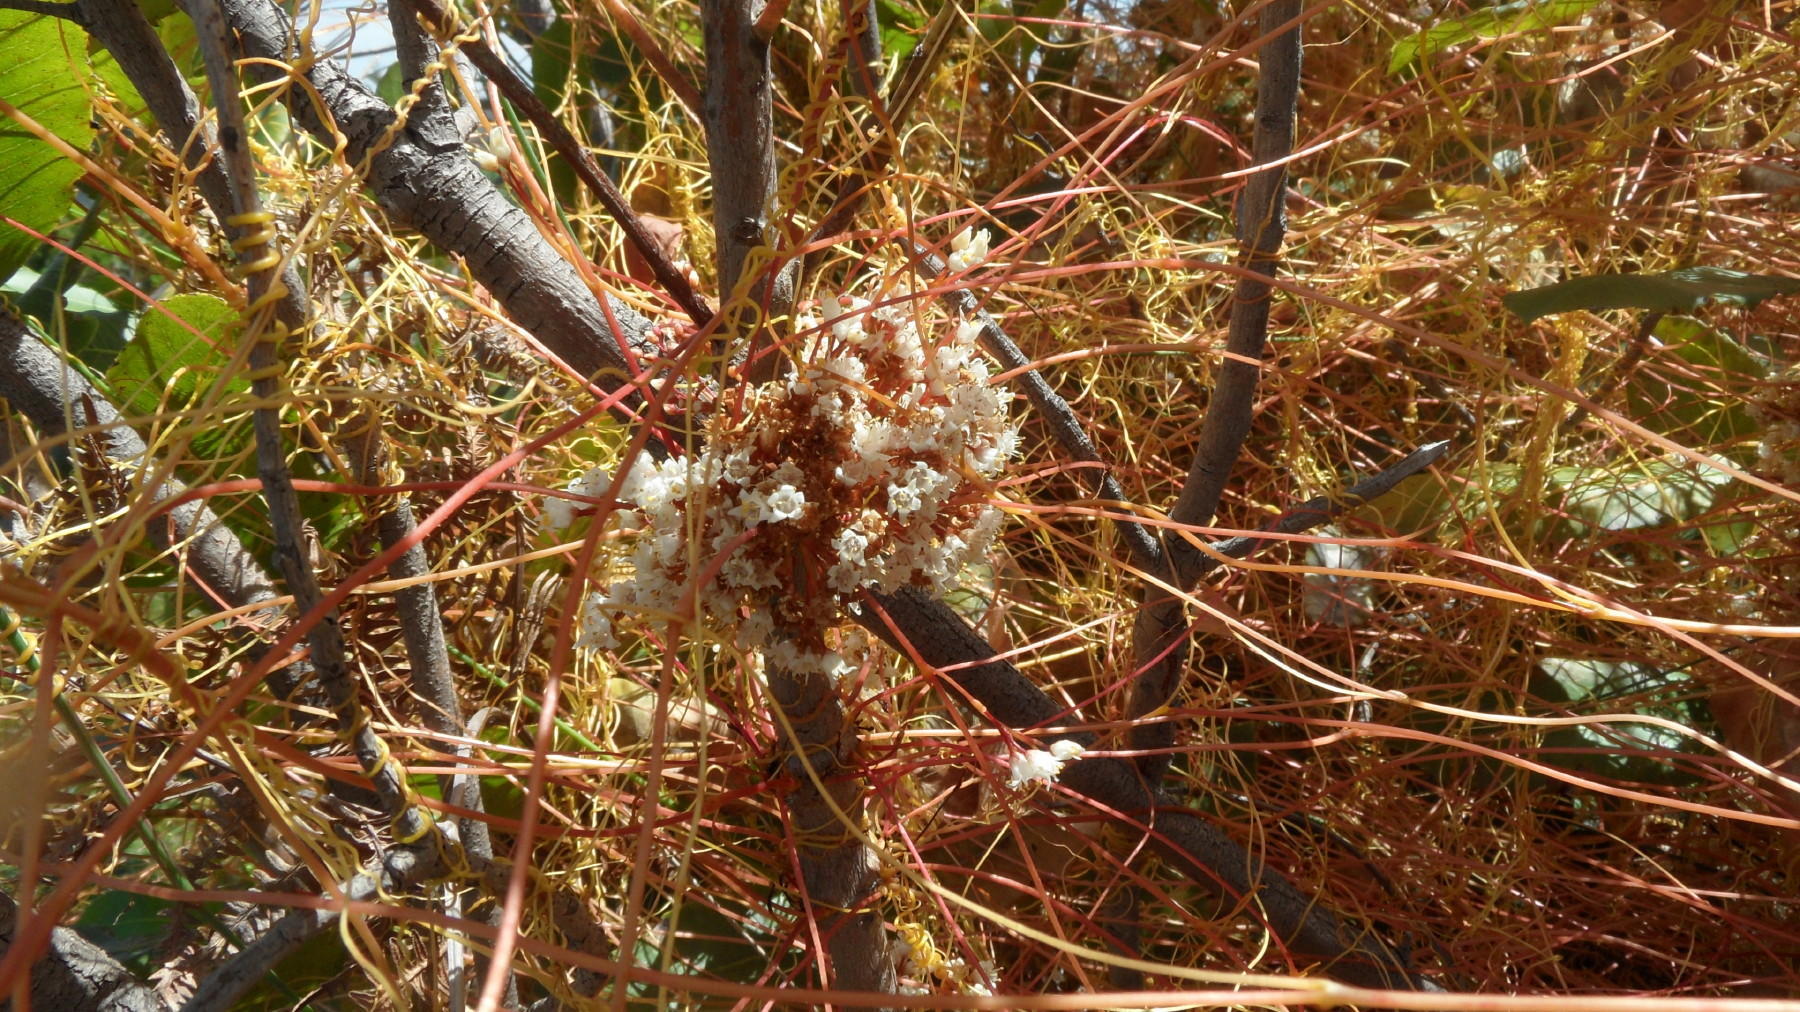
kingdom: Plantae
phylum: Tracheophyta
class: Magnoliopsida
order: Solanales
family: Convolvulaceae
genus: Cuscuta
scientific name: Cuscuta africana
